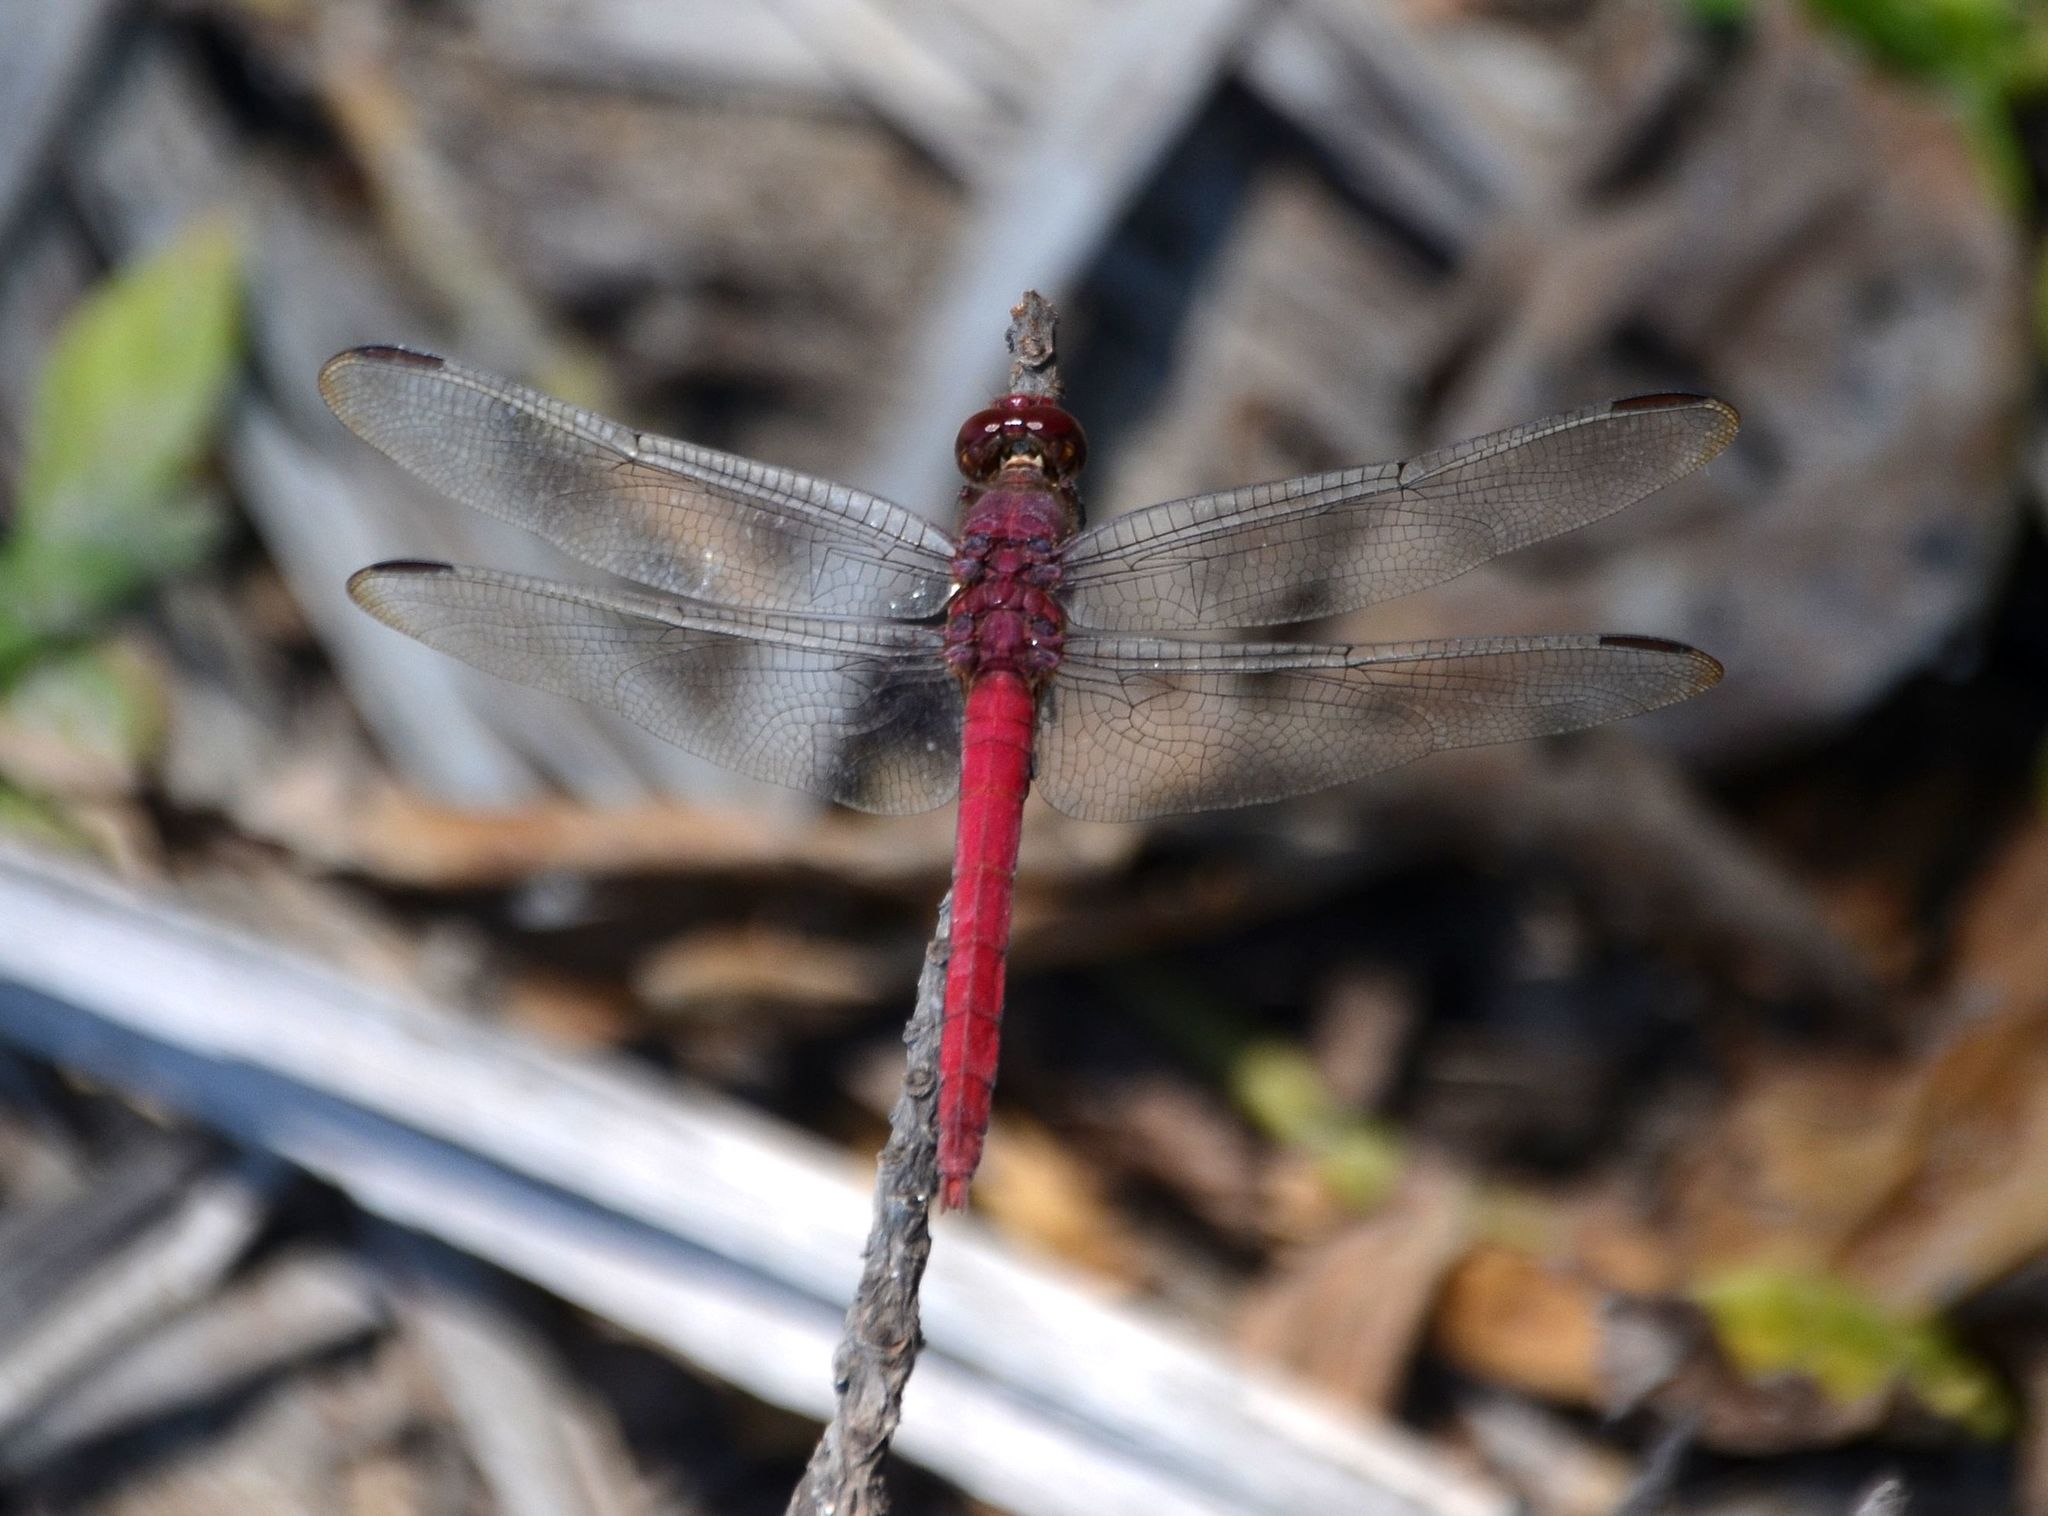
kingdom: Animalia
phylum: Arthropoda
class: Insecta
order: Odonata
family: Libellulidae
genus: Orthemis
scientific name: Orthemis discolor
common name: Carmine skimmer
